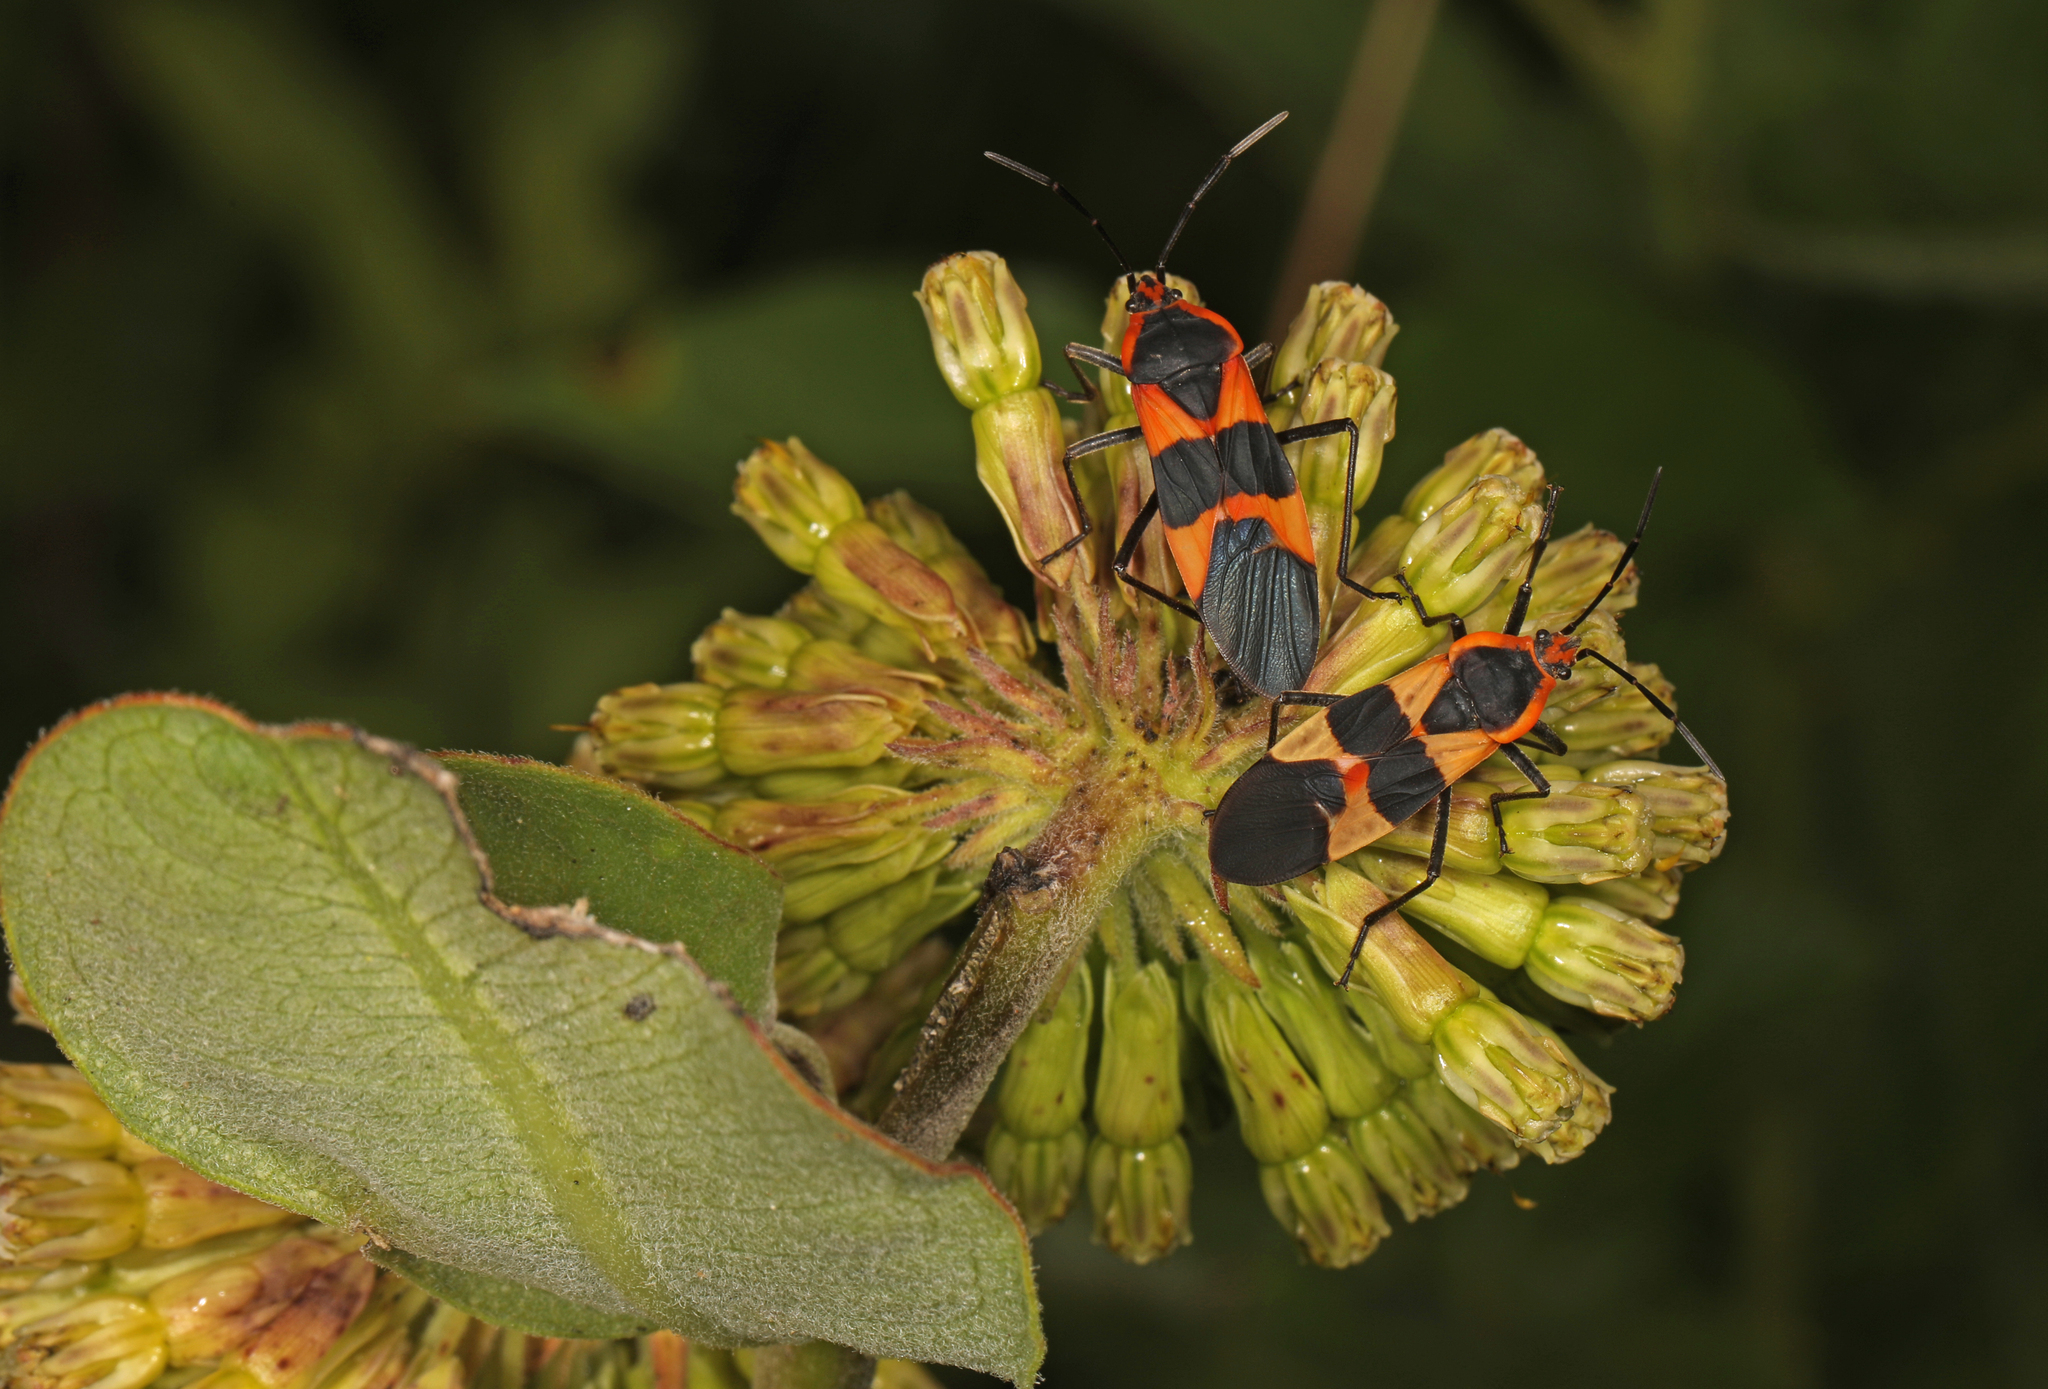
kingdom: Animalia
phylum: Arthropoda
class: Insecta
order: Hemiptera
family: Lygaeidae
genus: Oncopeltus
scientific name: Oncopeltus fasciatus
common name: Large milkweed bug
